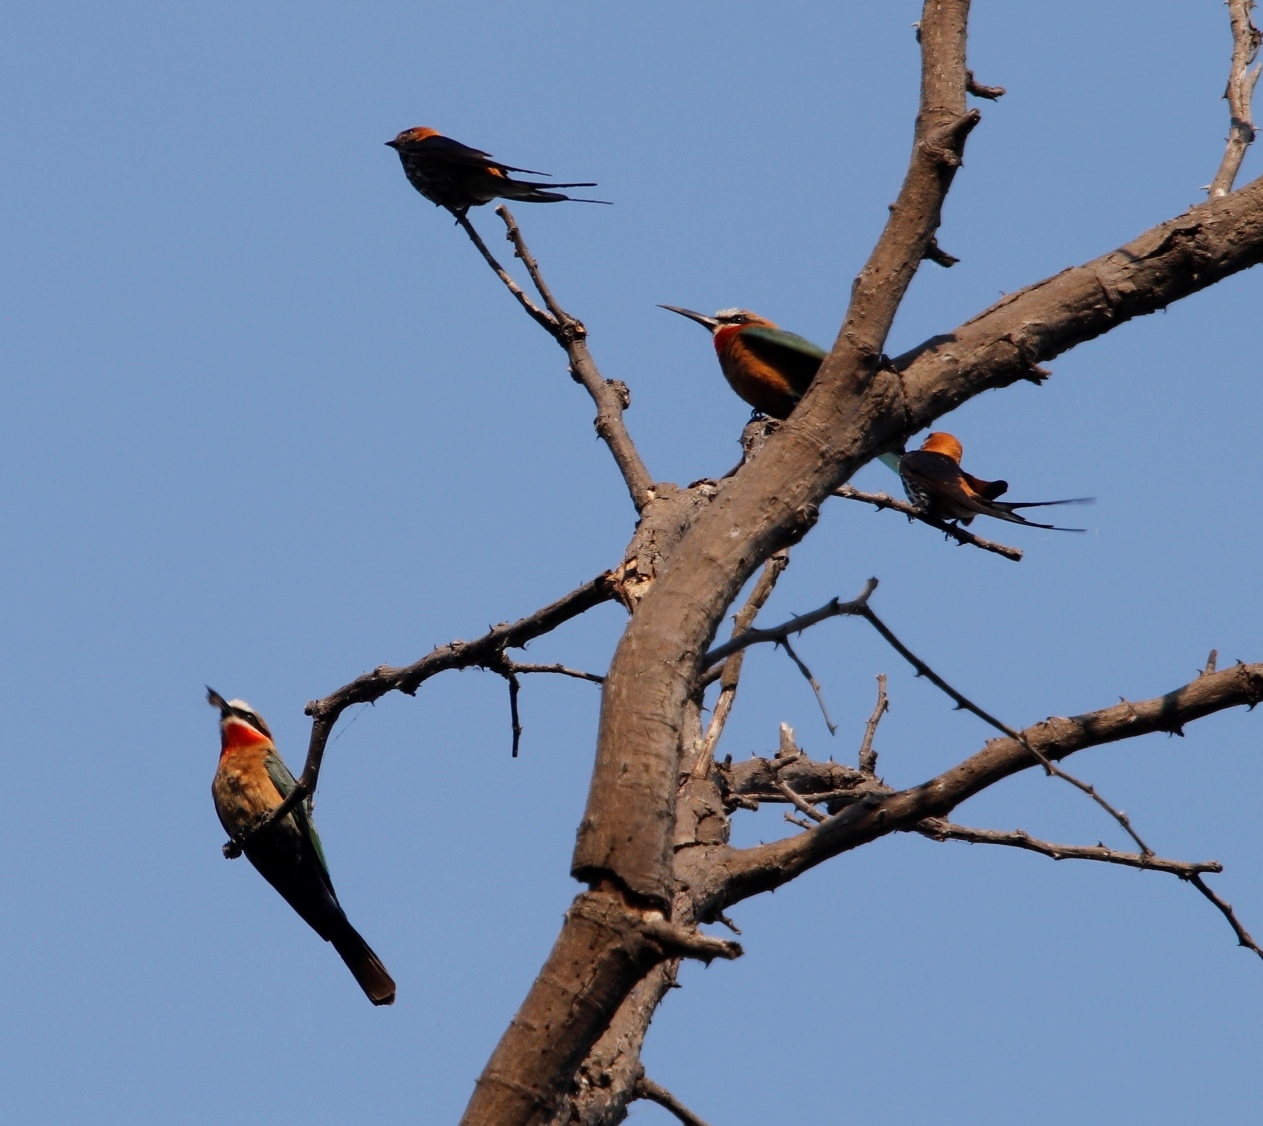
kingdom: Animalia
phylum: Chordata
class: Aves
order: Coraciiformes
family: Meropidae
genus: Merops
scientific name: Merops bullockoides
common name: White-fronted bee-eater
